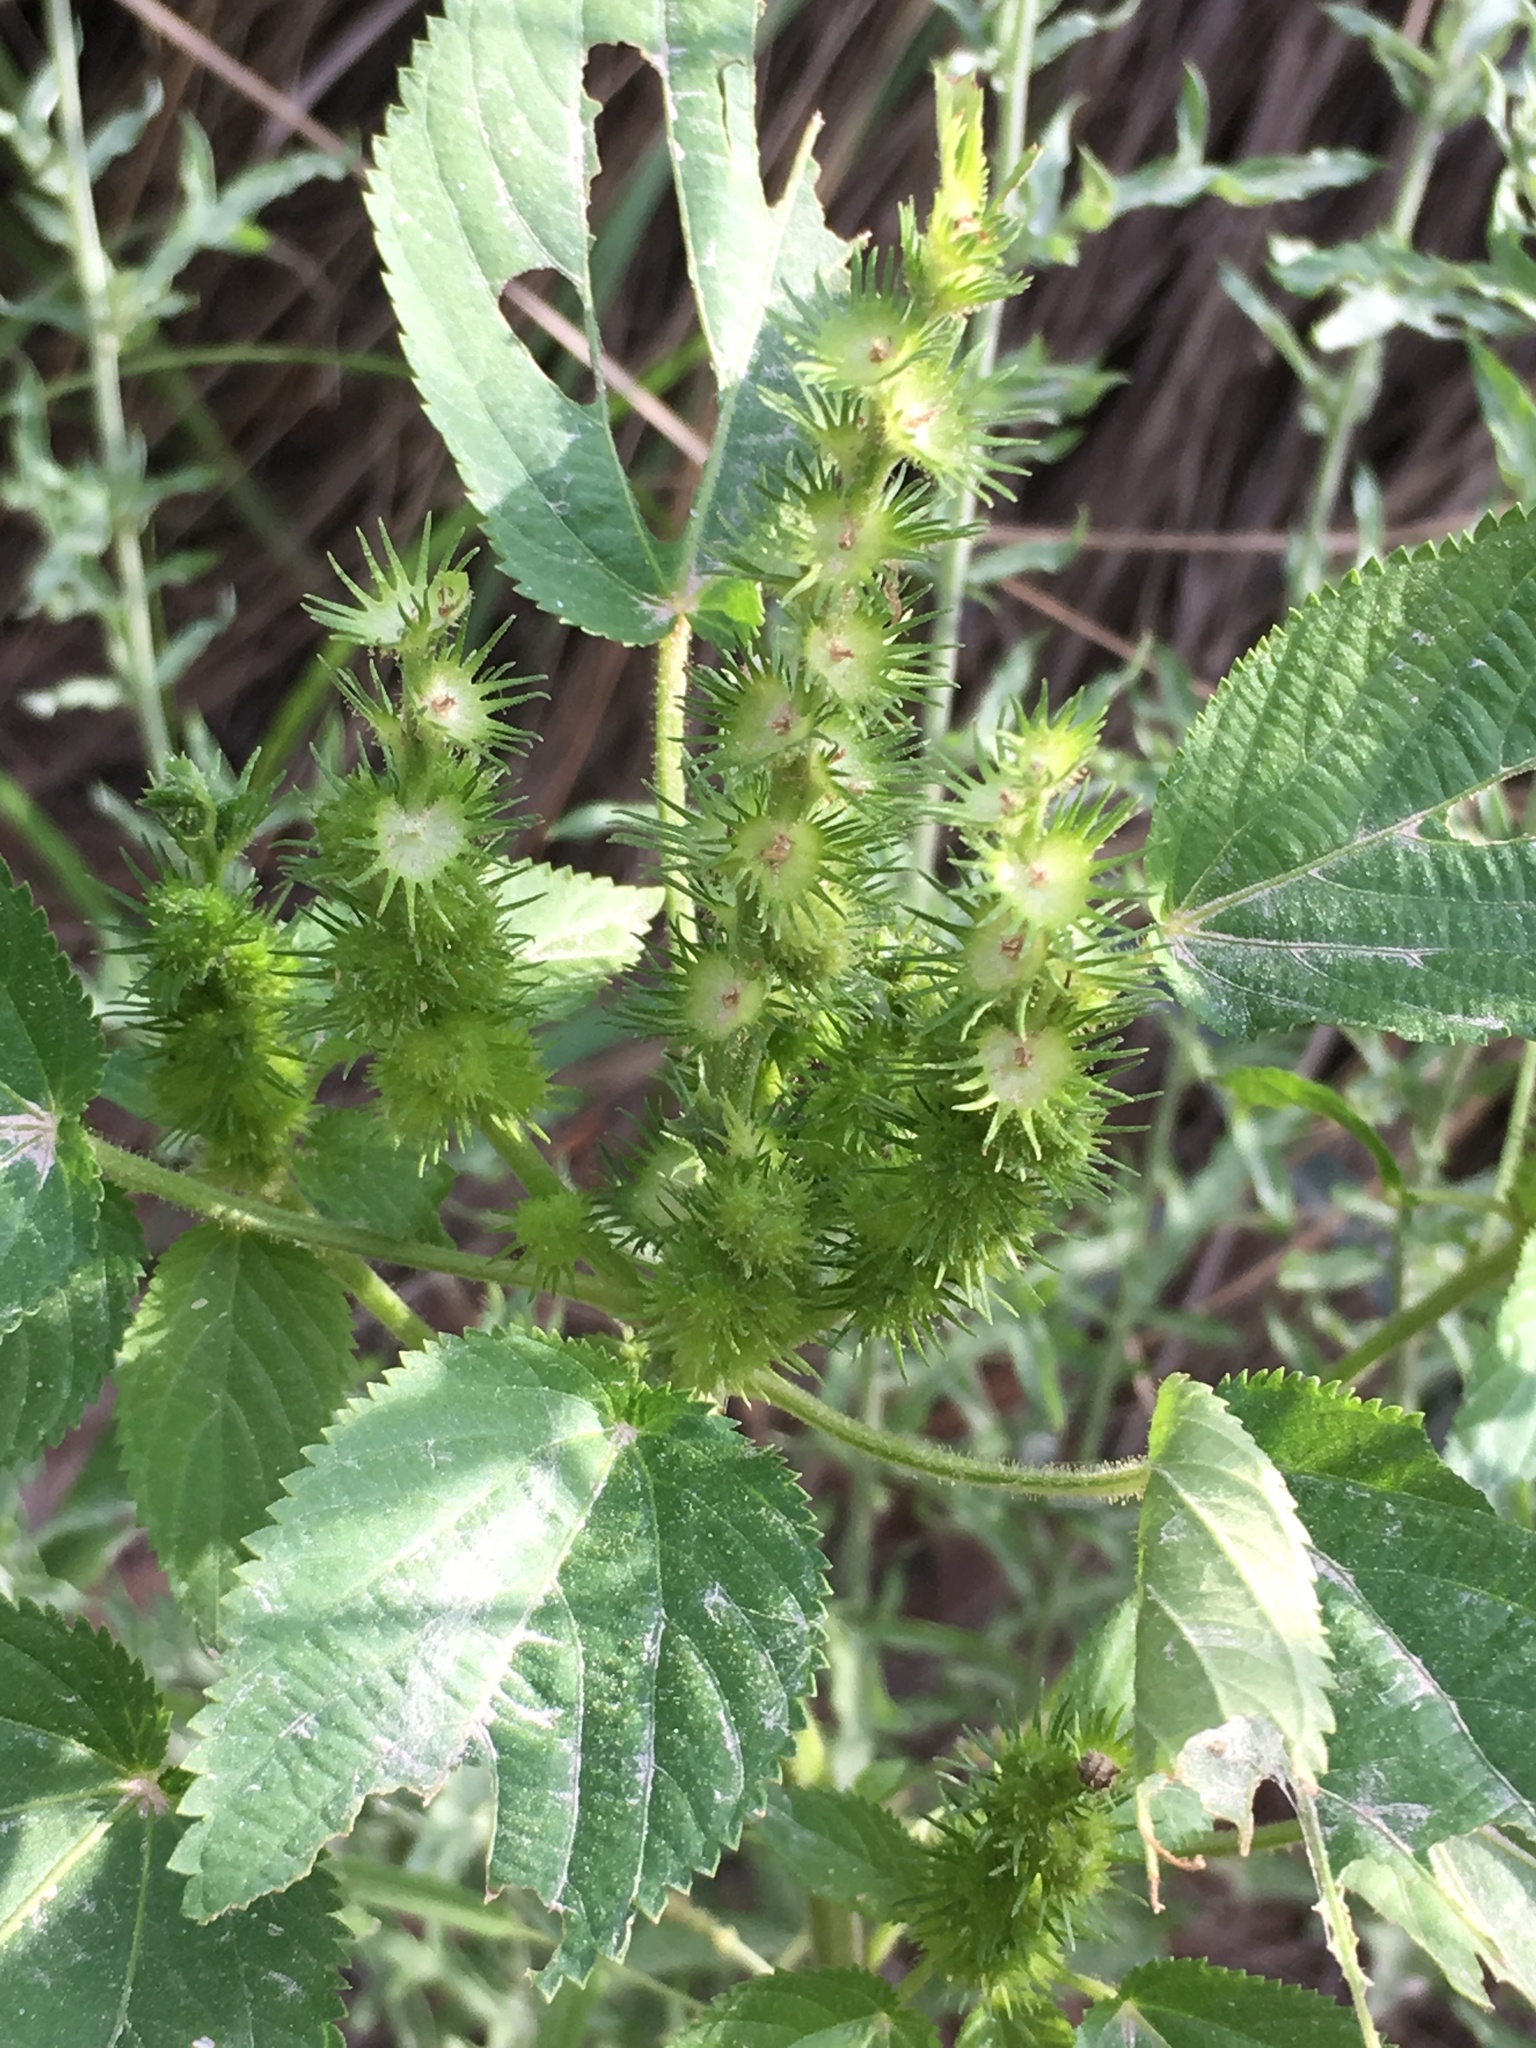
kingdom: Plantae
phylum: Tracheophyta
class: Magnoliopsida
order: Malpighiales
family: Euphorbiaceae
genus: Acalypha
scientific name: Acalypha ostryifolia
